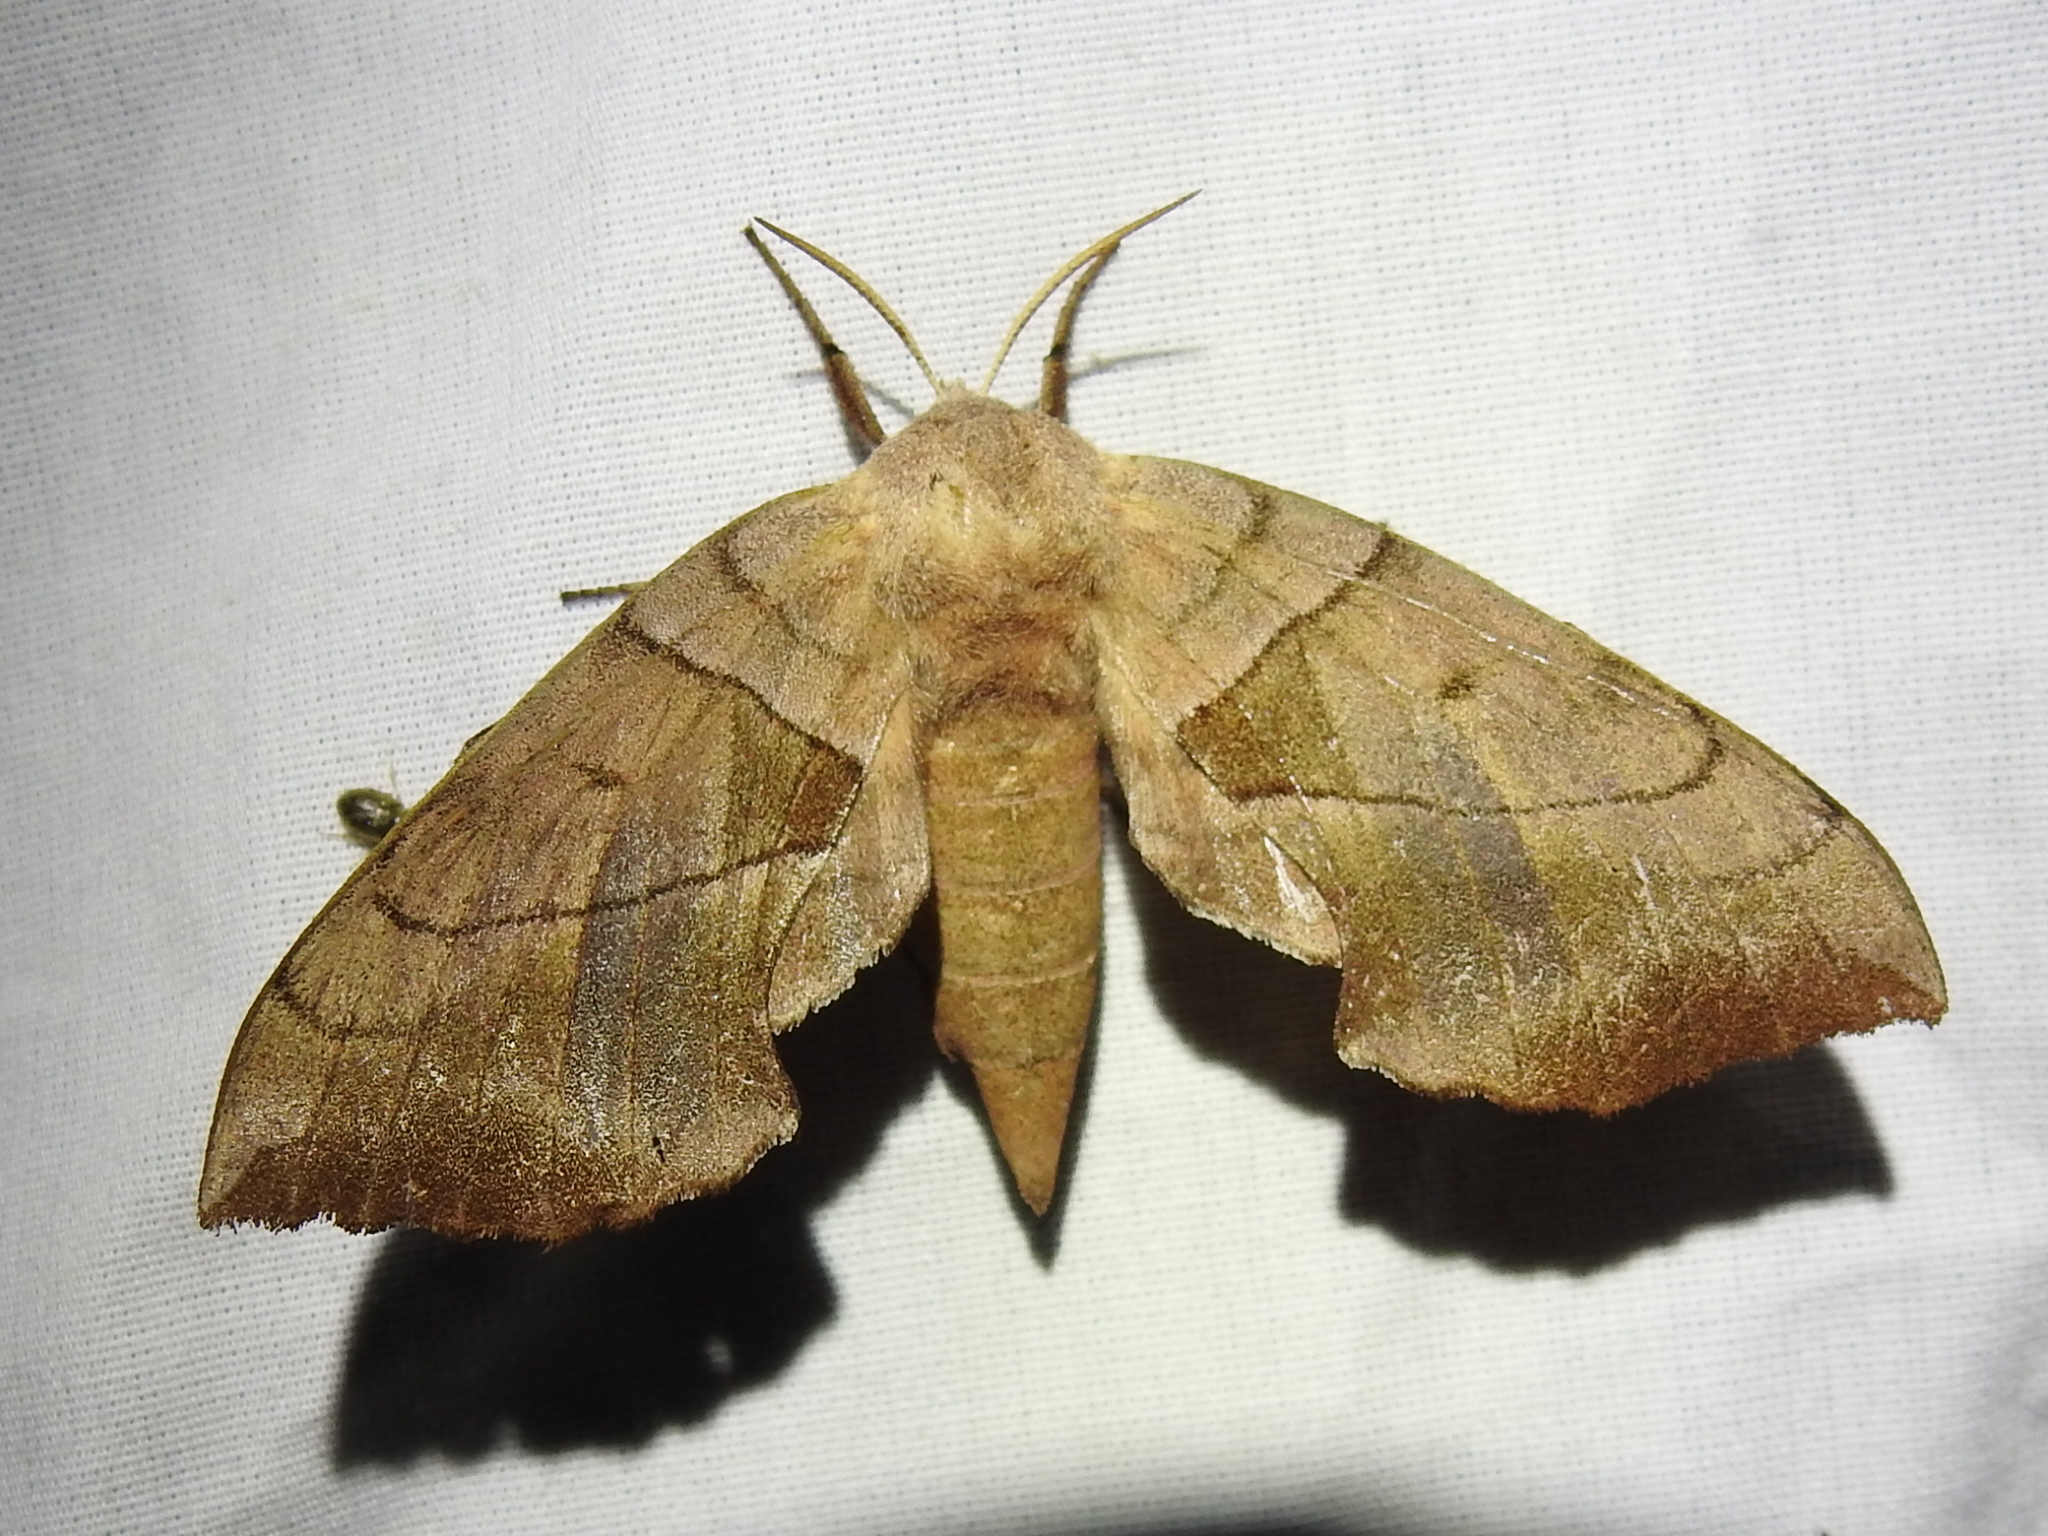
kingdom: Animalia
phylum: Arthropoda
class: Insecta
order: Lepidoptera
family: Sphingidae
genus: Amorpha
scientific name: Amorpha juglandis
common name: Walnut sphinx
